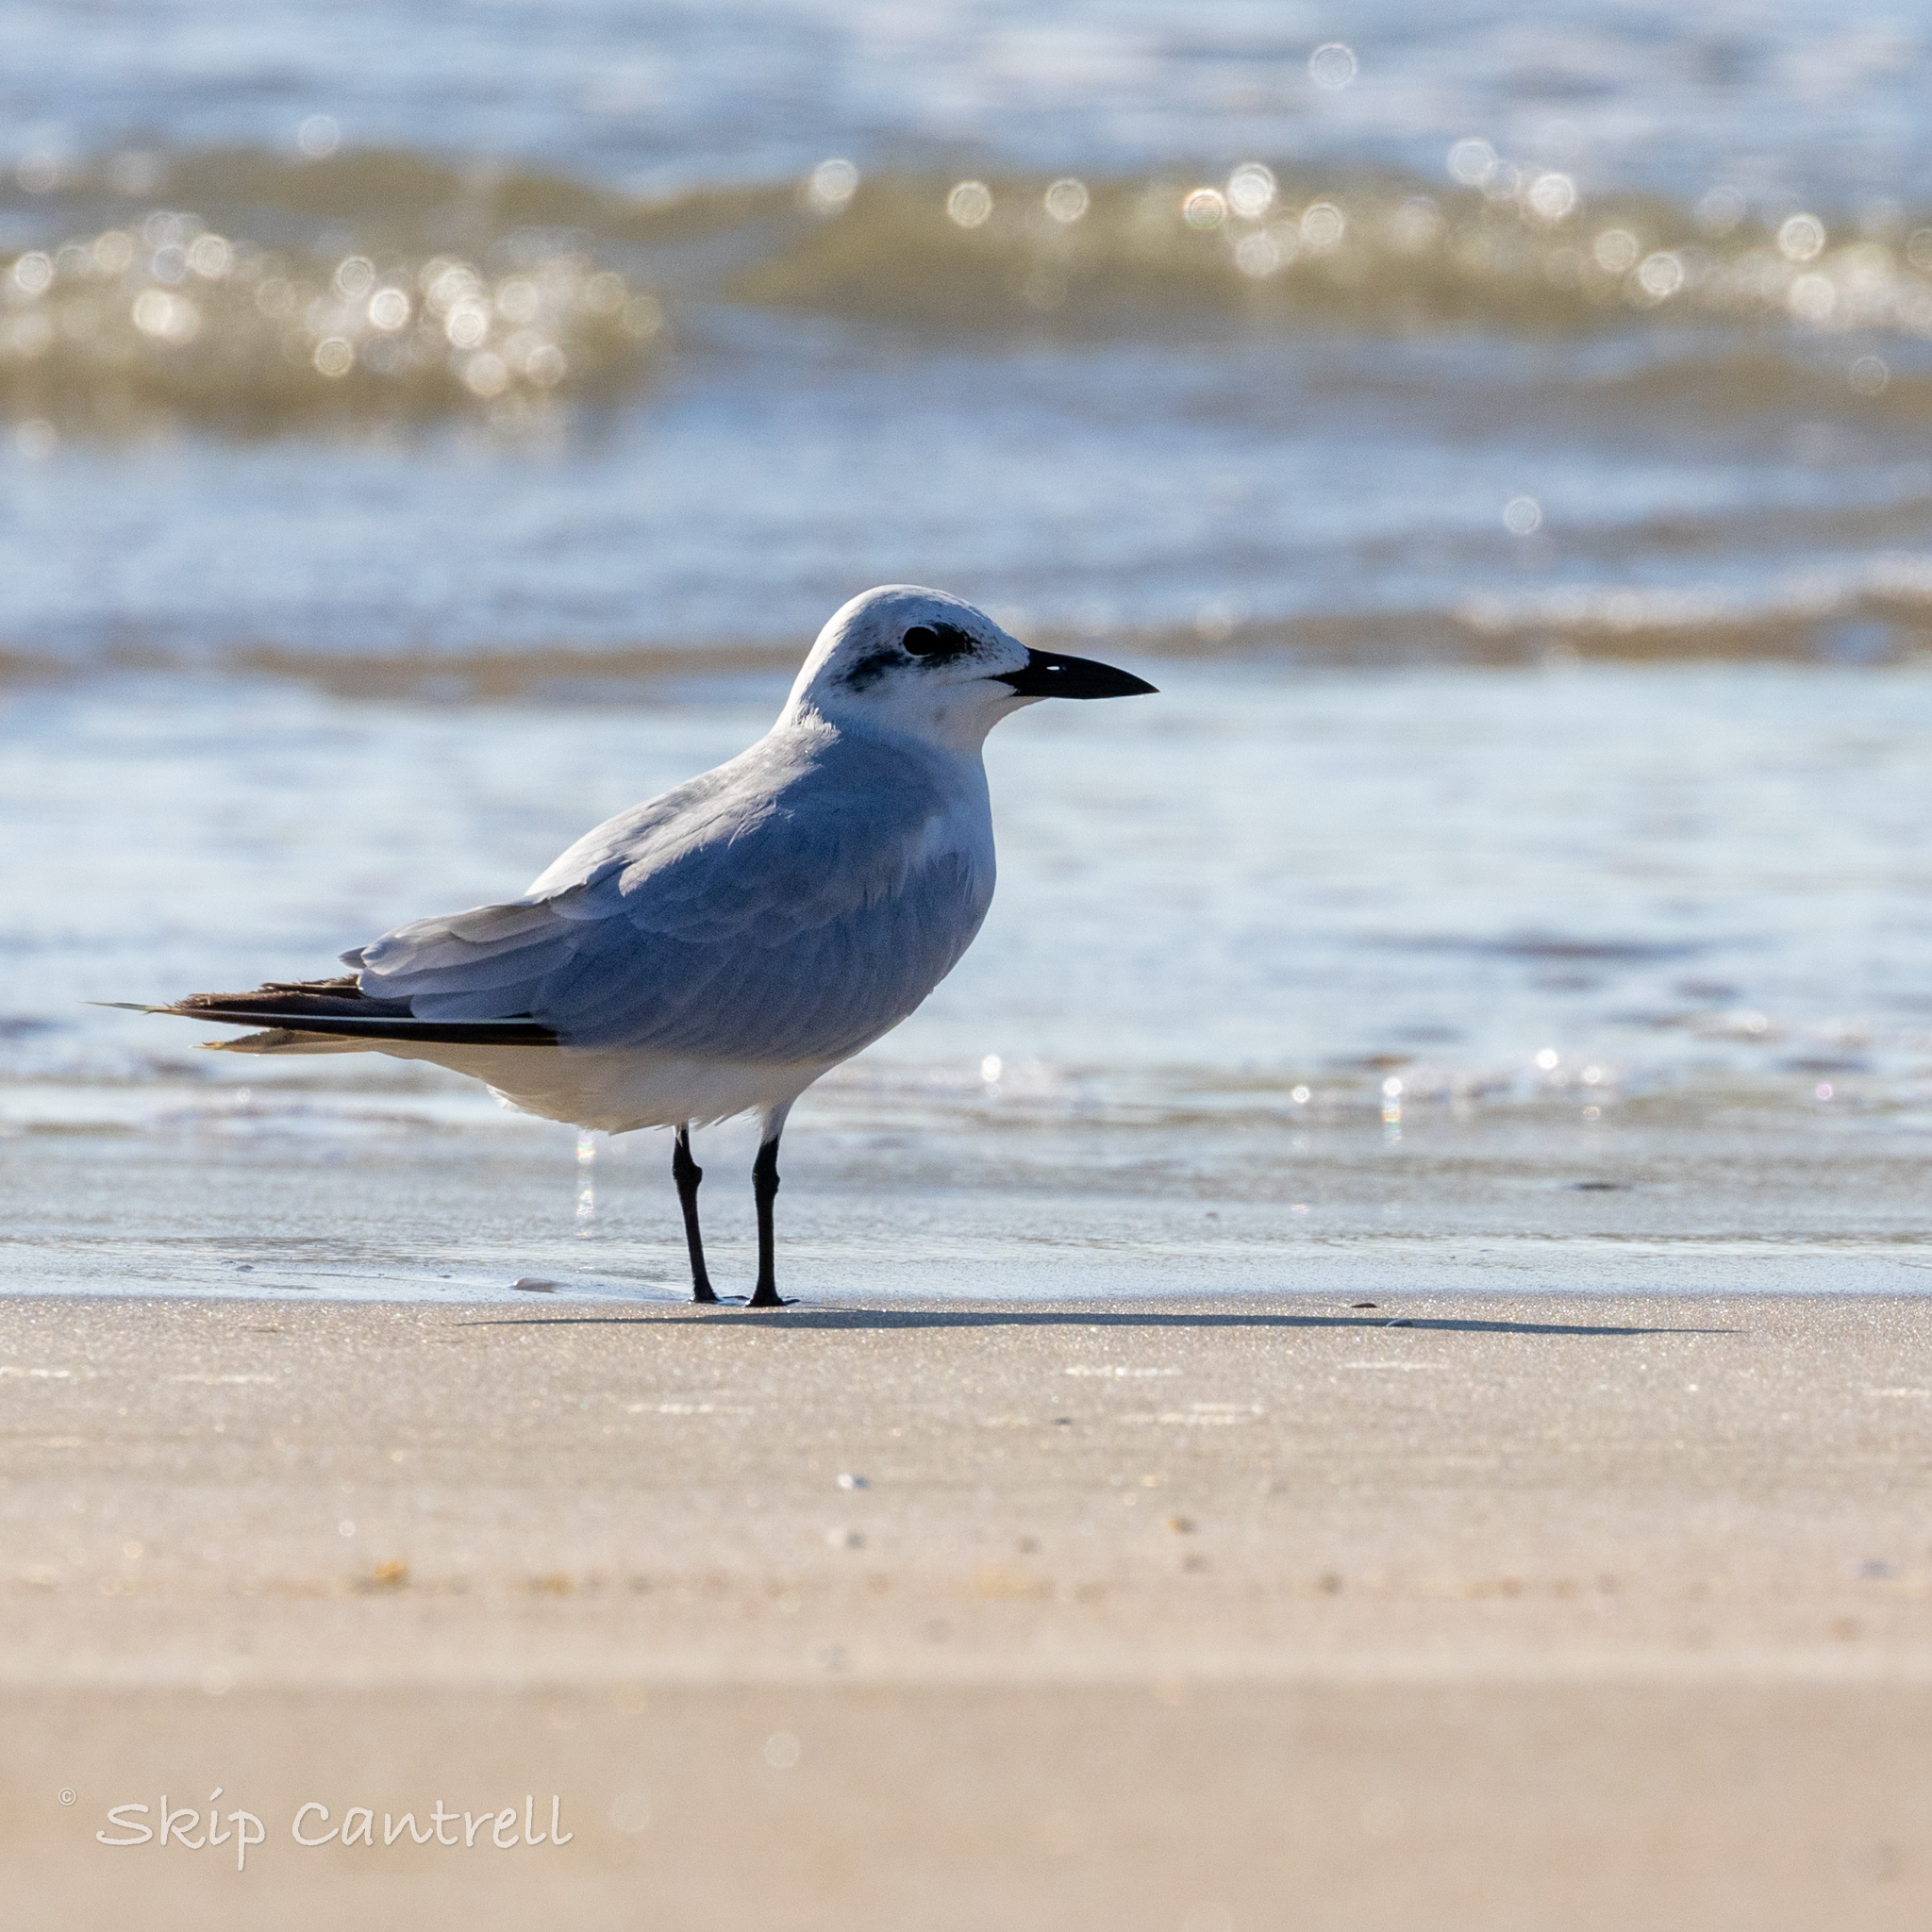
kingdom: Animalia
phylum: Chordata
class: Aves
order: Charadriiformes
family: Laridae
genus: Gelochelidon
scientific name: Gelochelidon nilotica
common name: Gull-billed tern
